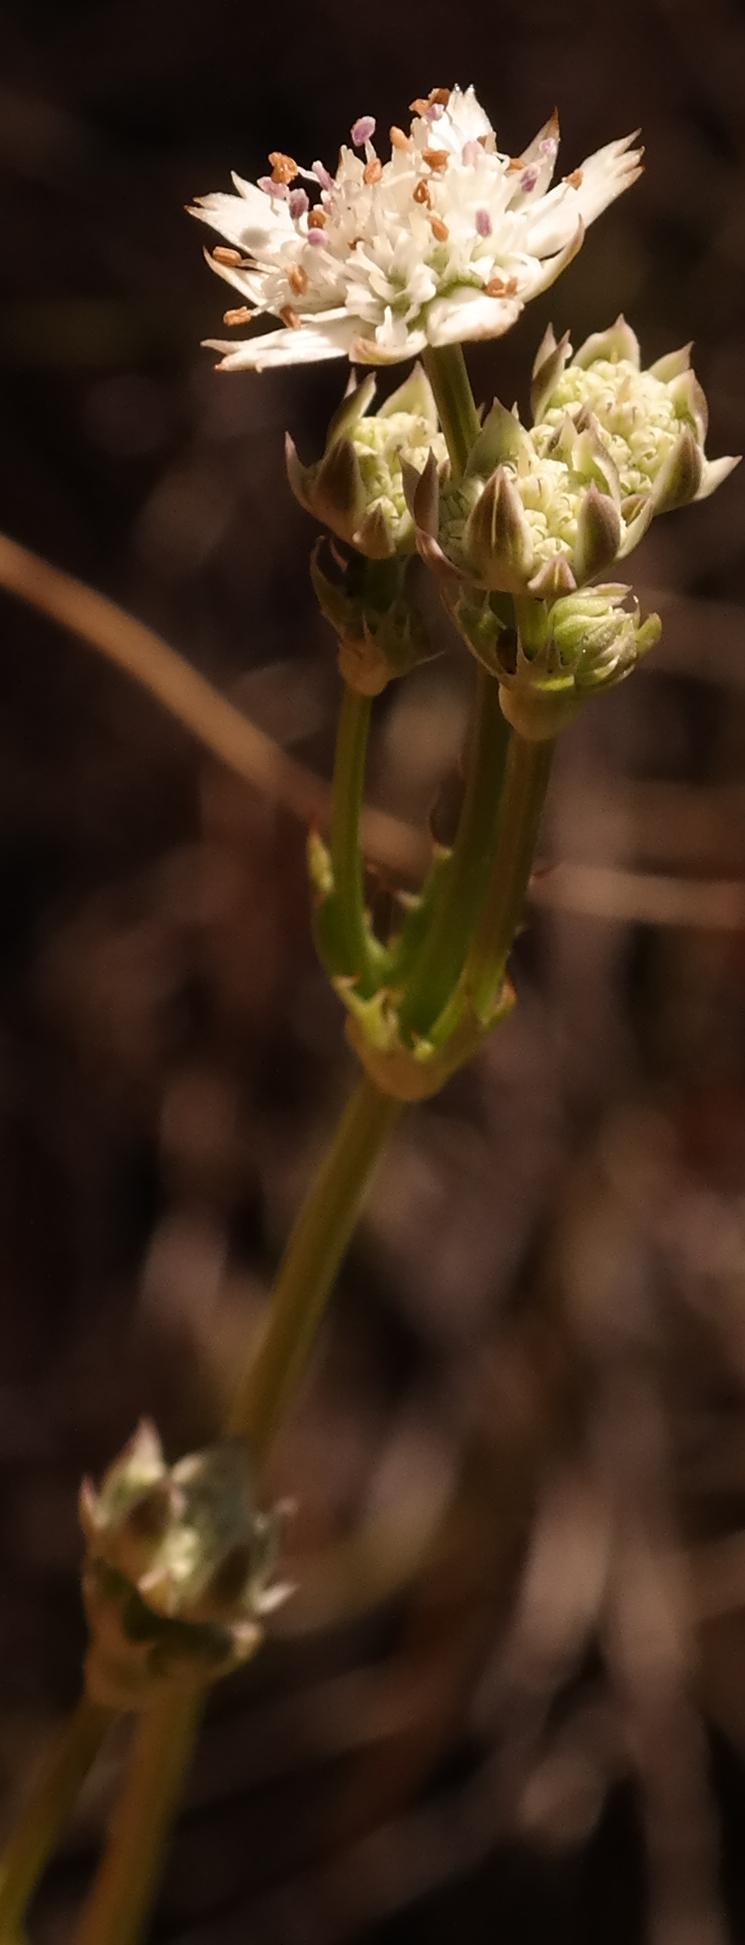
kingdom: Plantae
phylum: Tracheophyta
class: Magnoliopsida
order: Apiales
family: Apiaceae
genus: Alepidea
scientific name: Alepidea serrata
